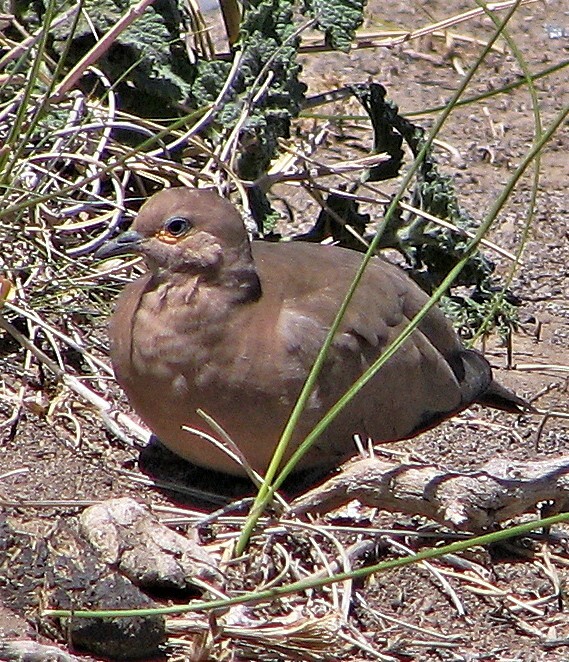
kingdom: Animalia
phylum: Chordata
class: Aves
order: Columbiformes
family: Columbidae
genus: Metriopelia
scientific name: Metriopelia melanoptera
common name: Black-winged ground dove
